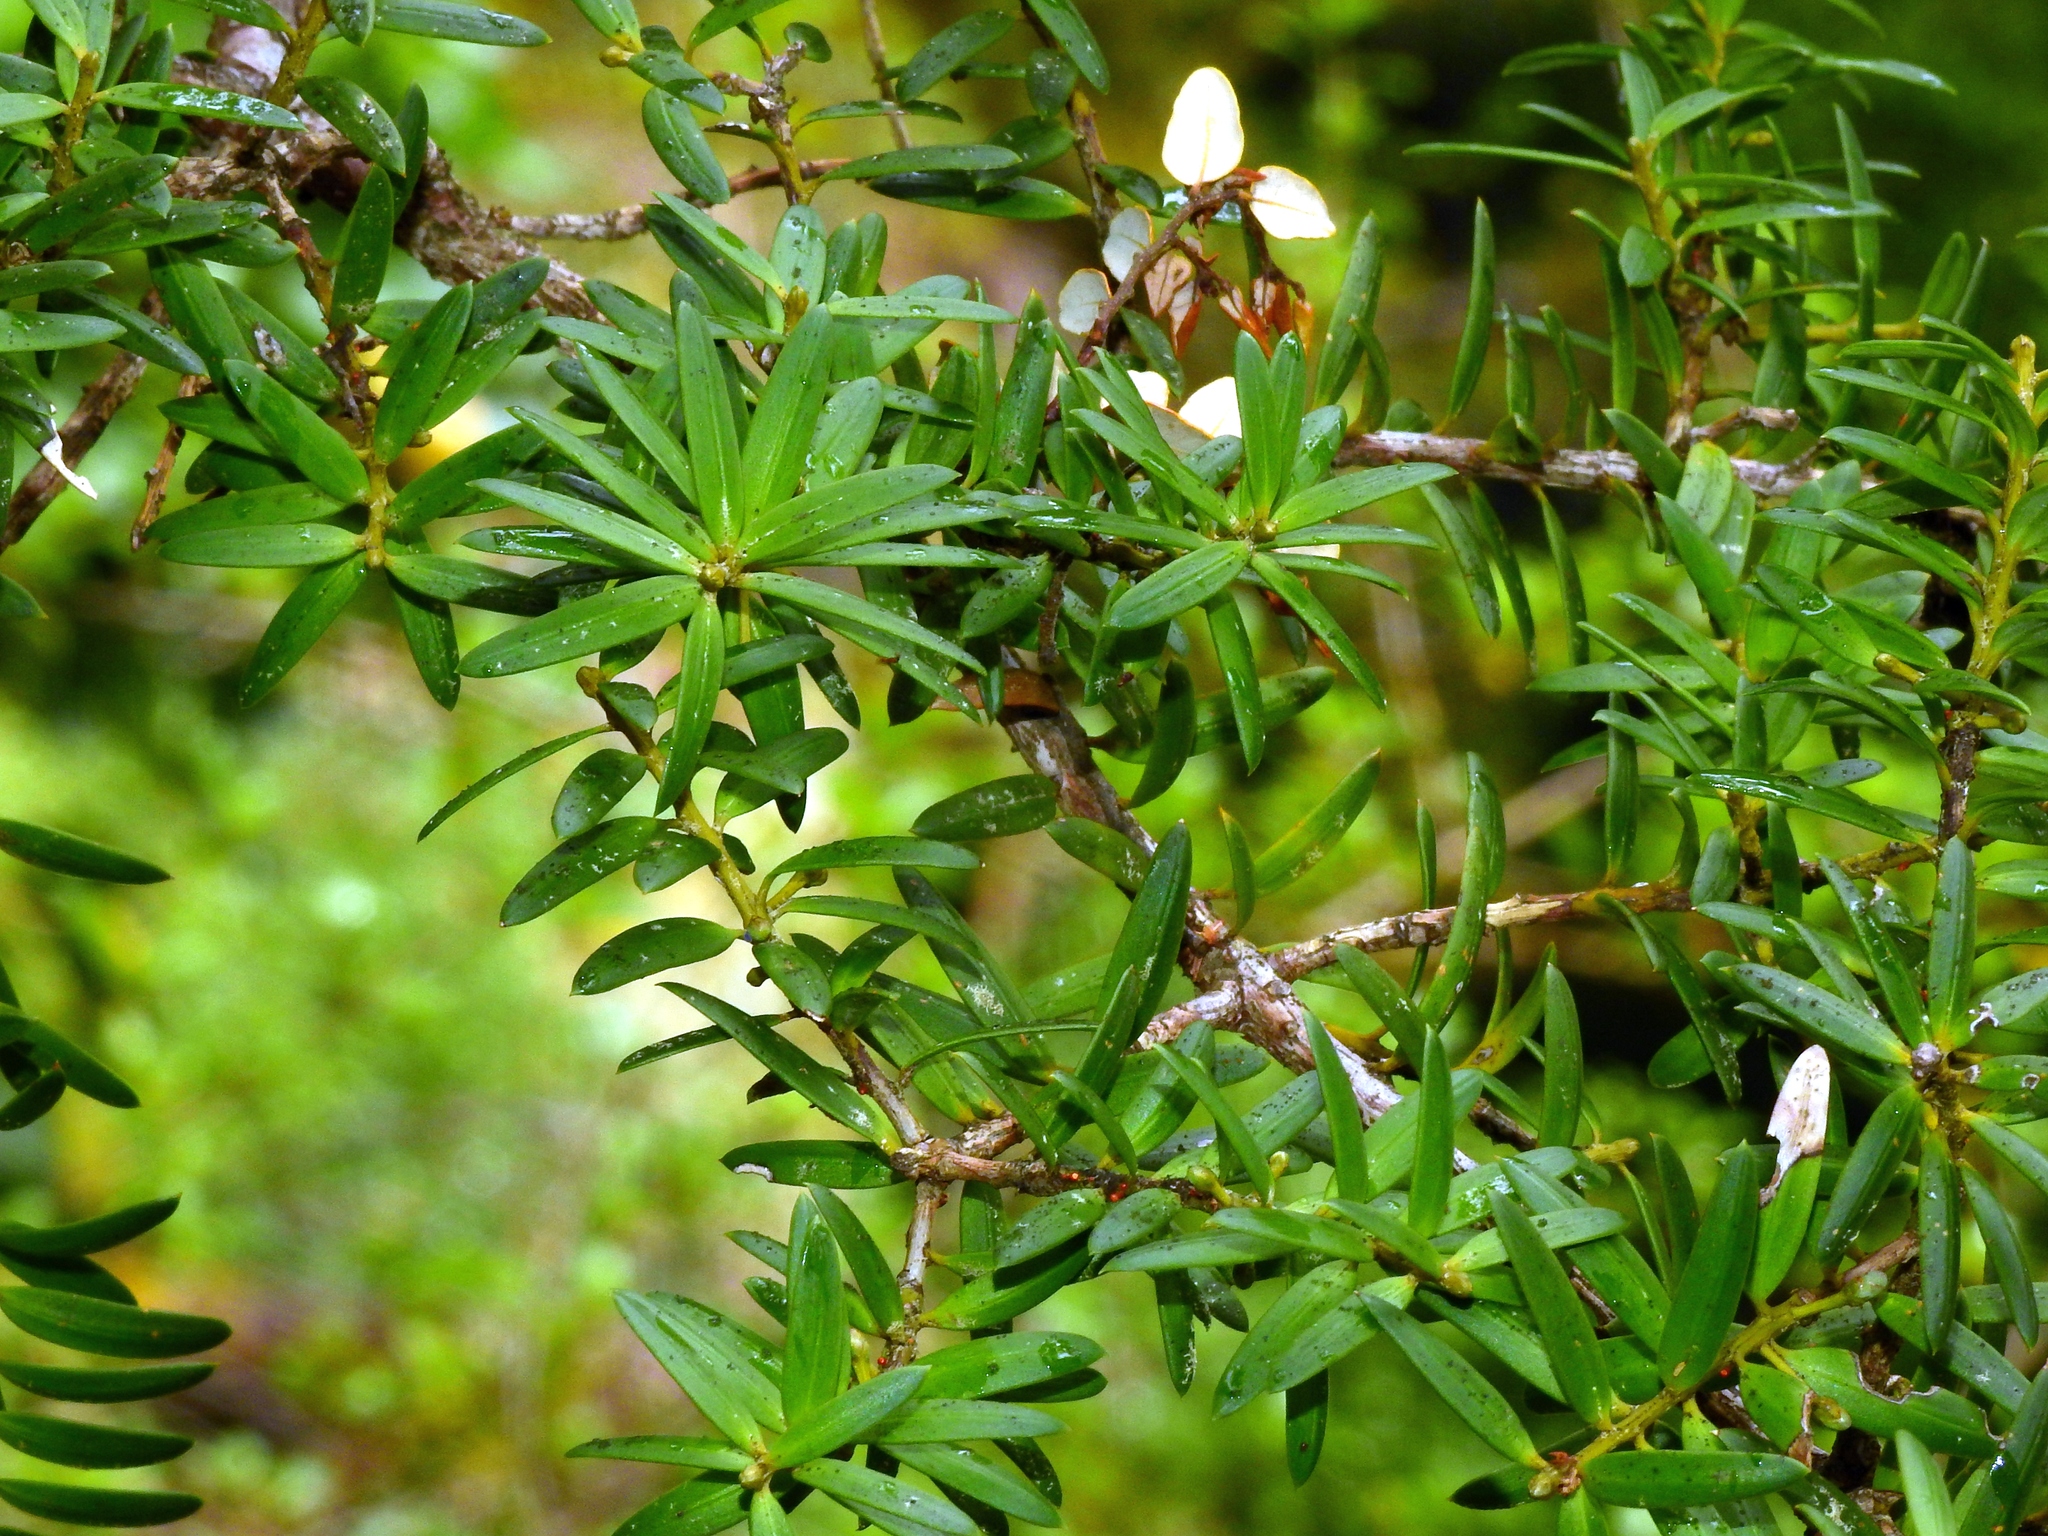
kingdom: Plantae
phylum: Tracheophyta
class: Pinopsida
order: Pinales
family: Podocarpaceae
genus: Podocarpus
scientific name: Podocarpus totara
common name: Totara
